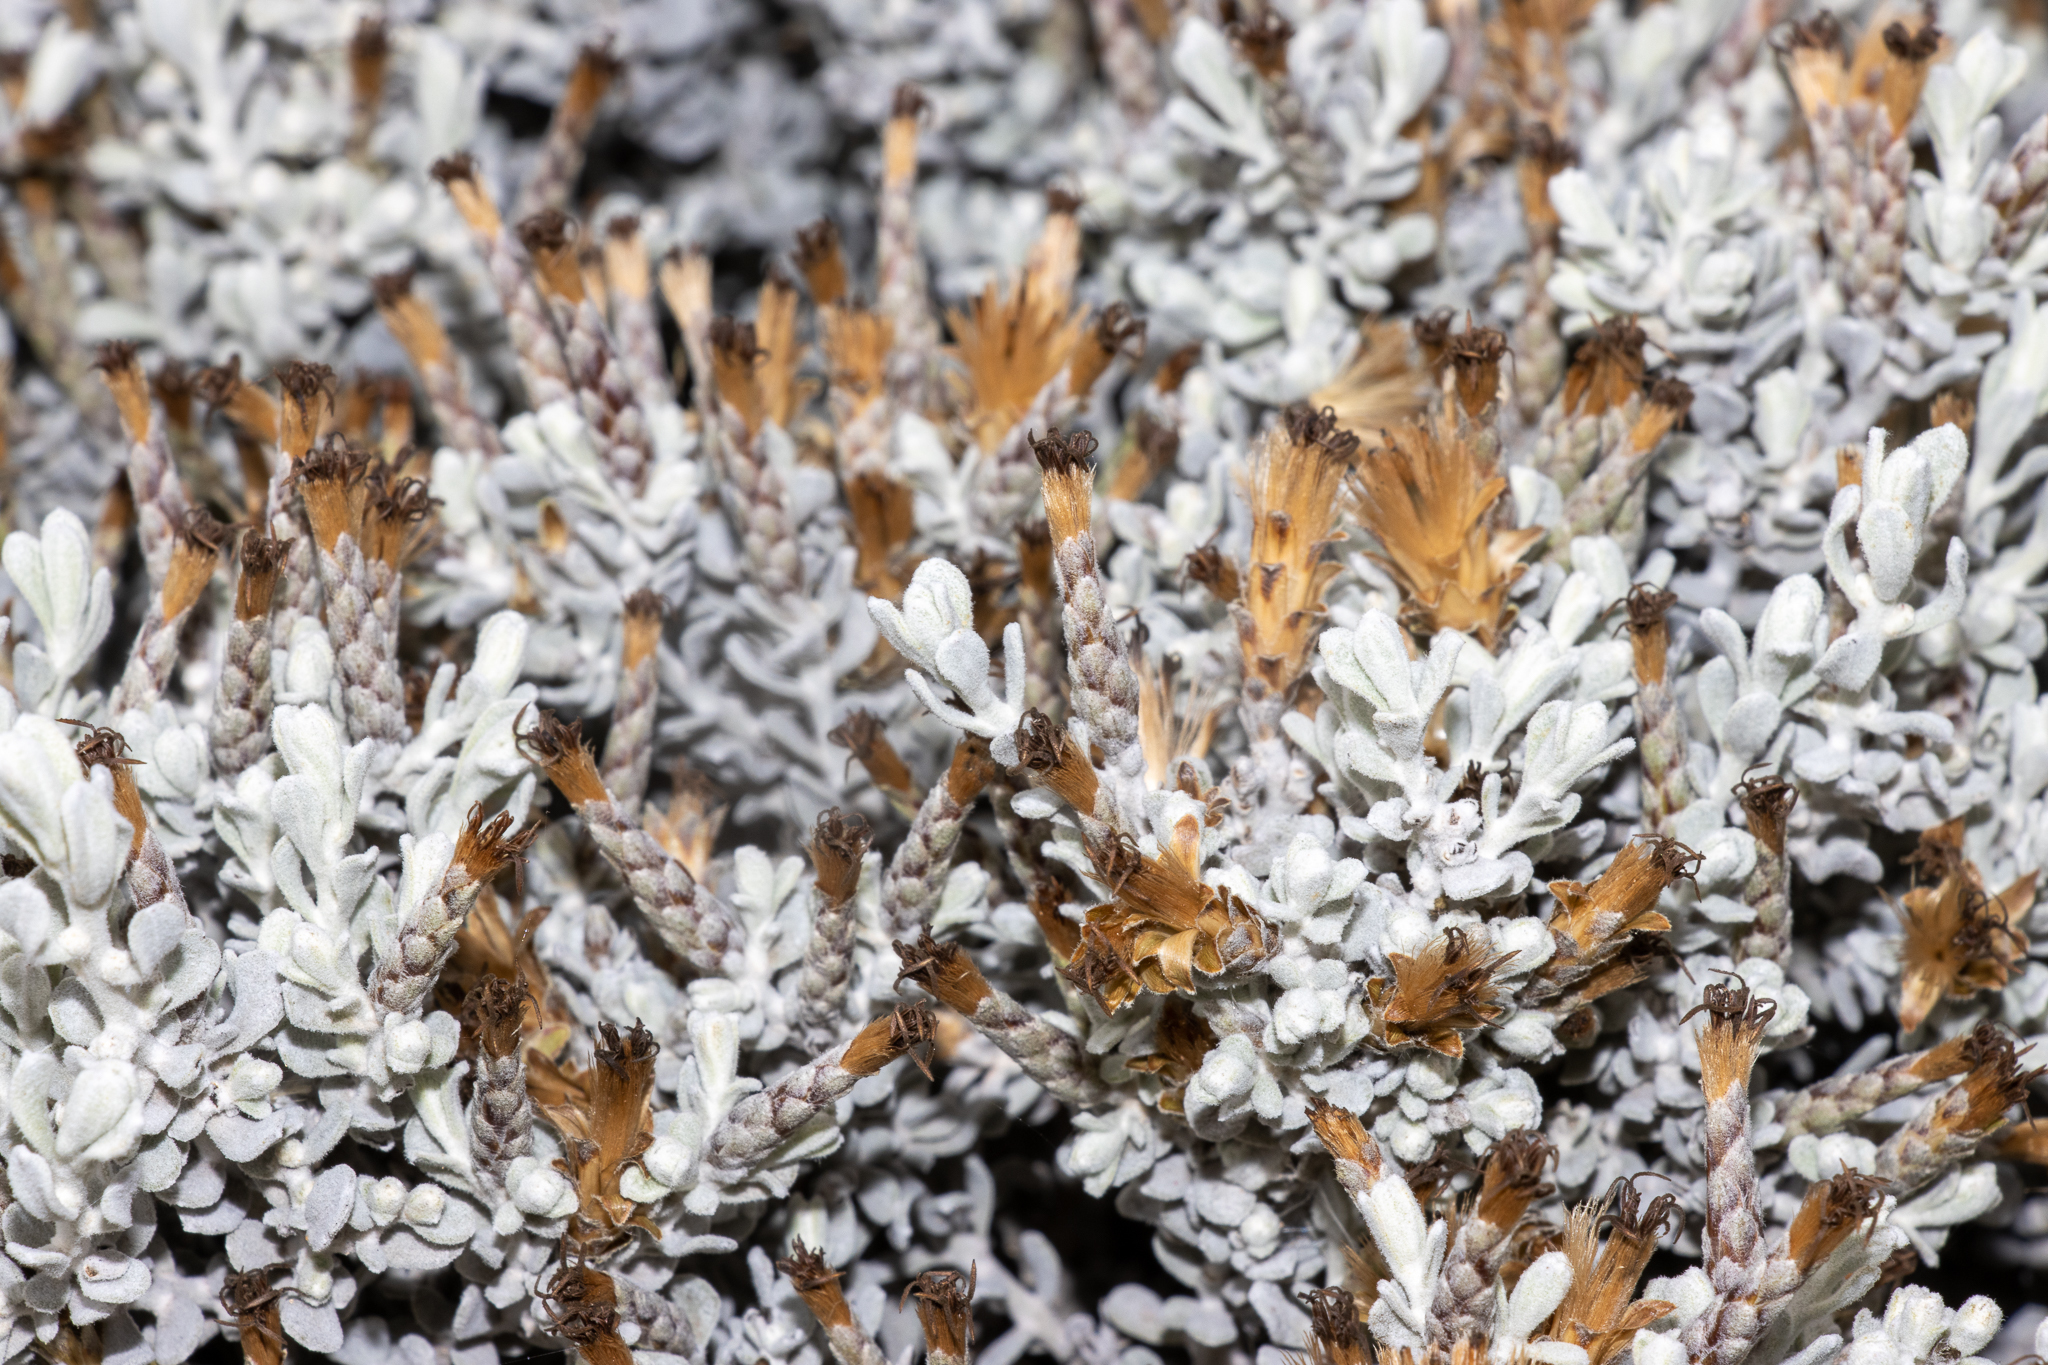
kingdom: Plantae
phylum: Tracheophyta
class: Magnoliopsida
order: Asterales
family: Asteraceae
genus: Cratystylis
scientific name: Cratystylis conocephala
